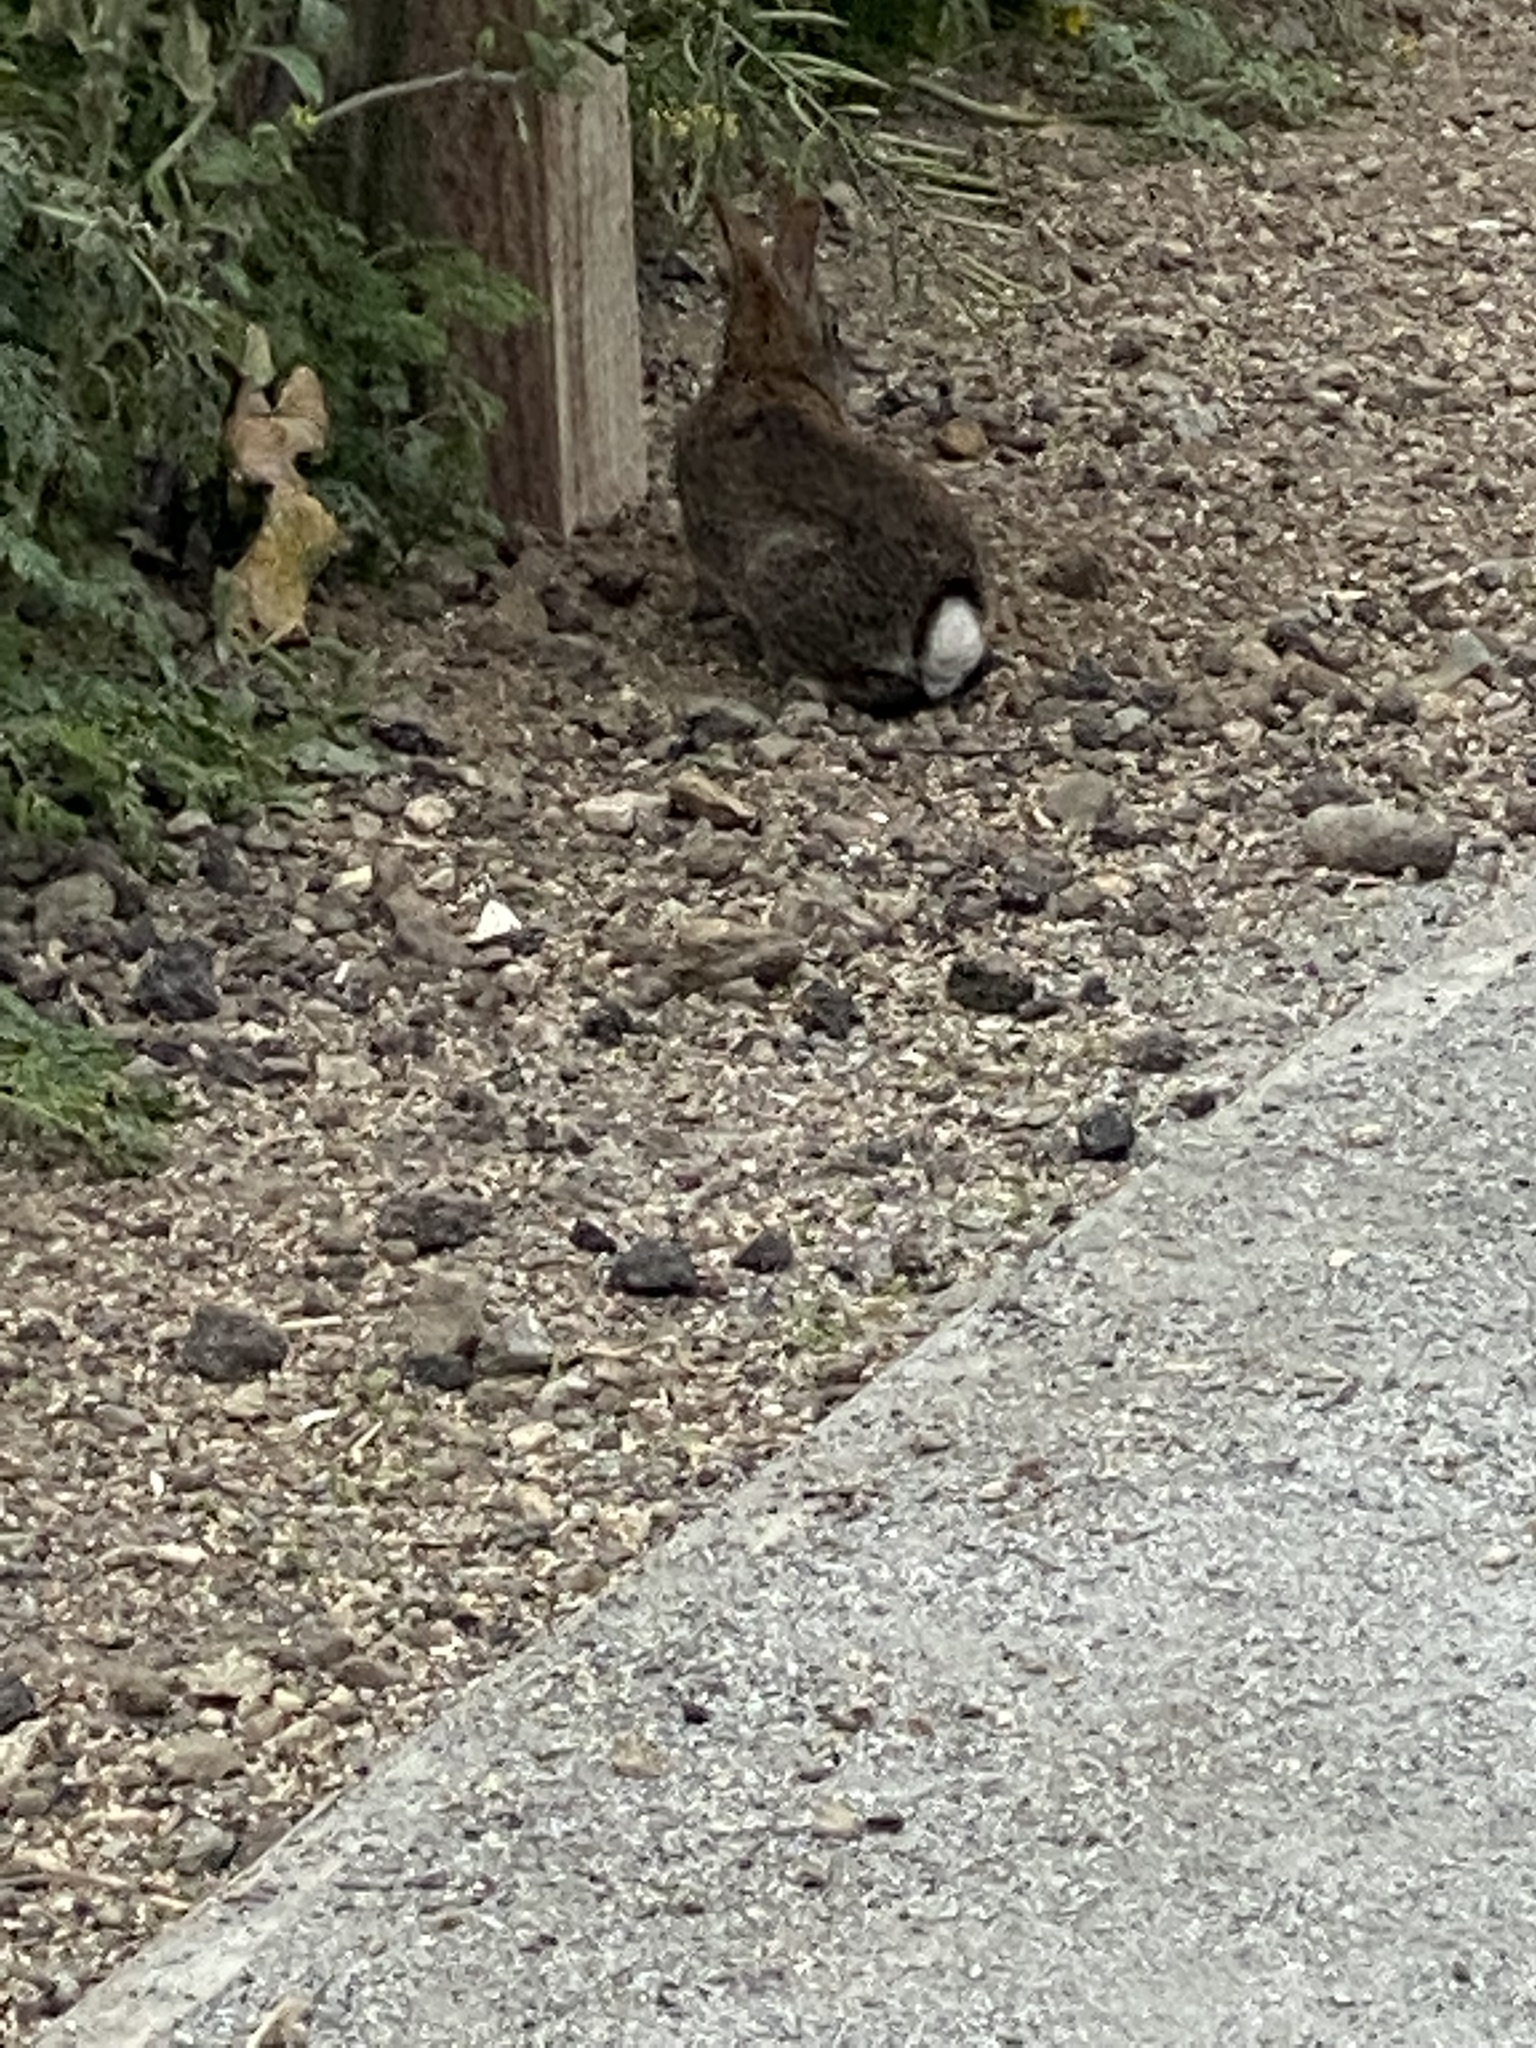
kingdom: Animalia
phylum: Chordata
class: Mammalia
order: Lagomorpha
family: Leporidae
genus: Sylvilagus
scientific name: Sylvilagus bachmani
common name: Brush rabbit
